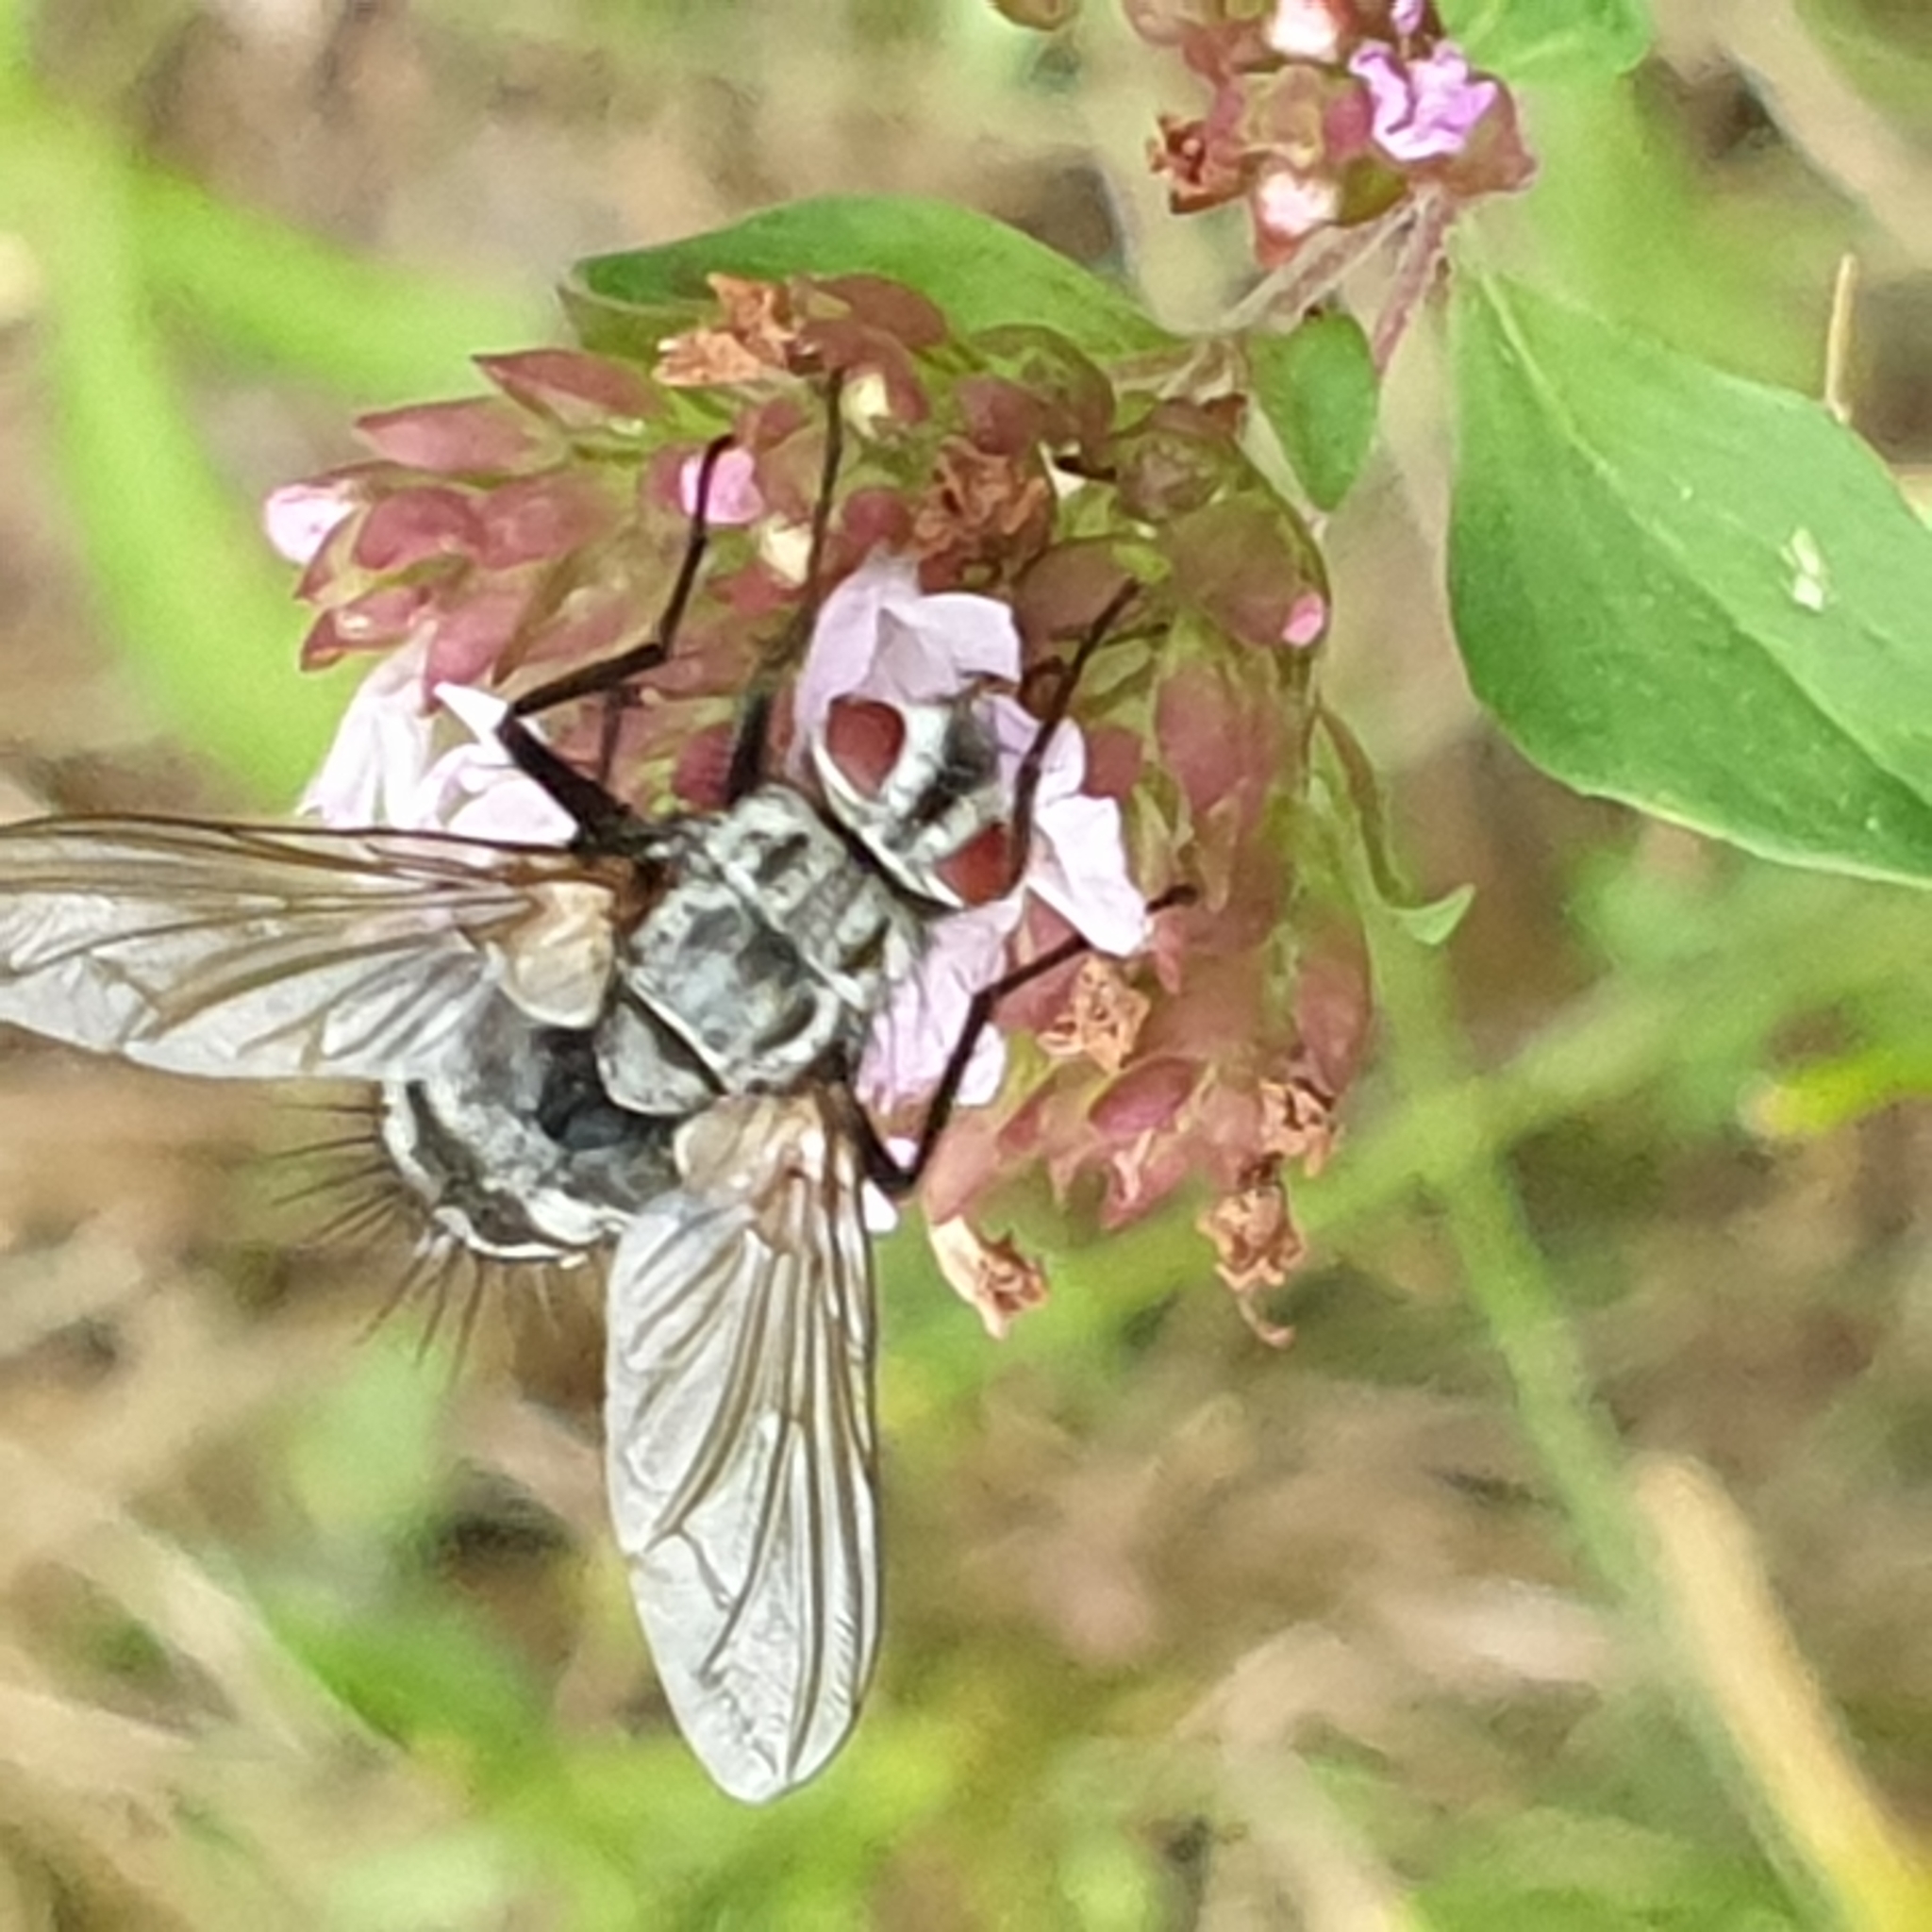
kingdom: Animalia
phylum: Arthropoda
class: Insecta
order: Diptera
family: Tachinidae
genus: Dinera
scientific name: Dinera ferina
